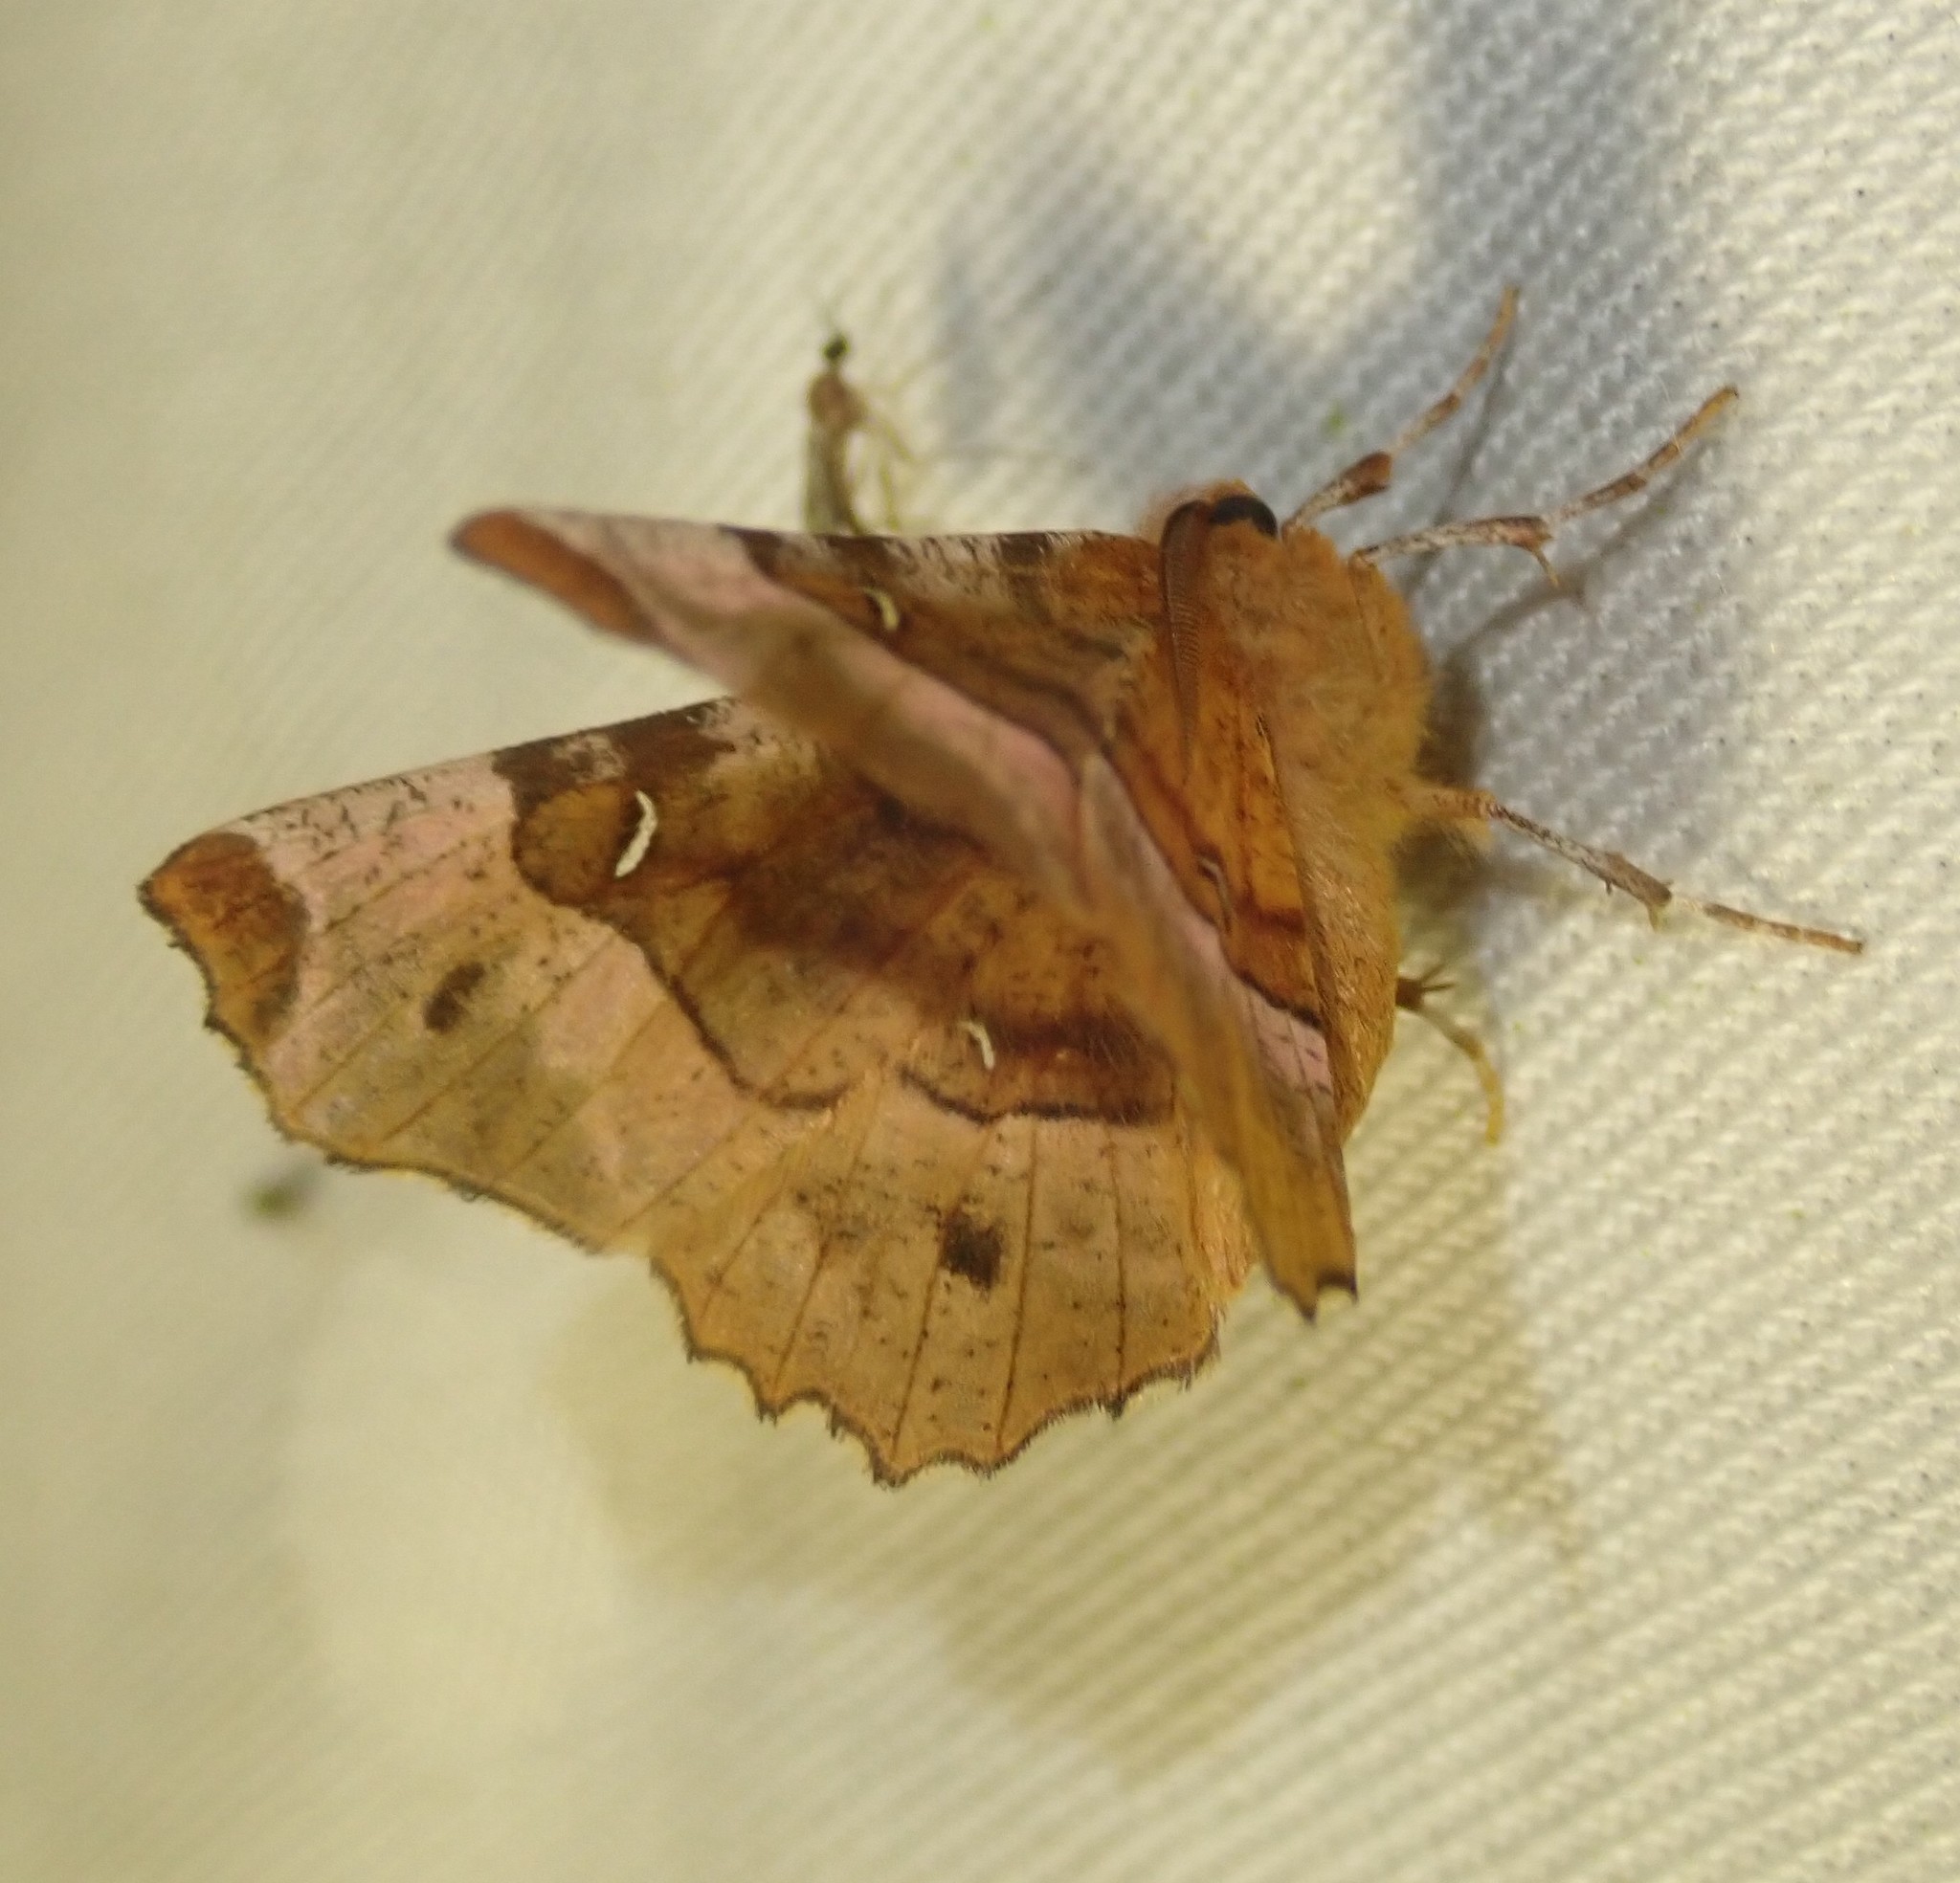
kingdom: Animalia
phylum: Arthropoda
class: Insecta
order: Lepidoptera
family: Geometridae
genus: Selenia
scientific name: Selenia tetralunaria
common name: Purple thorn
